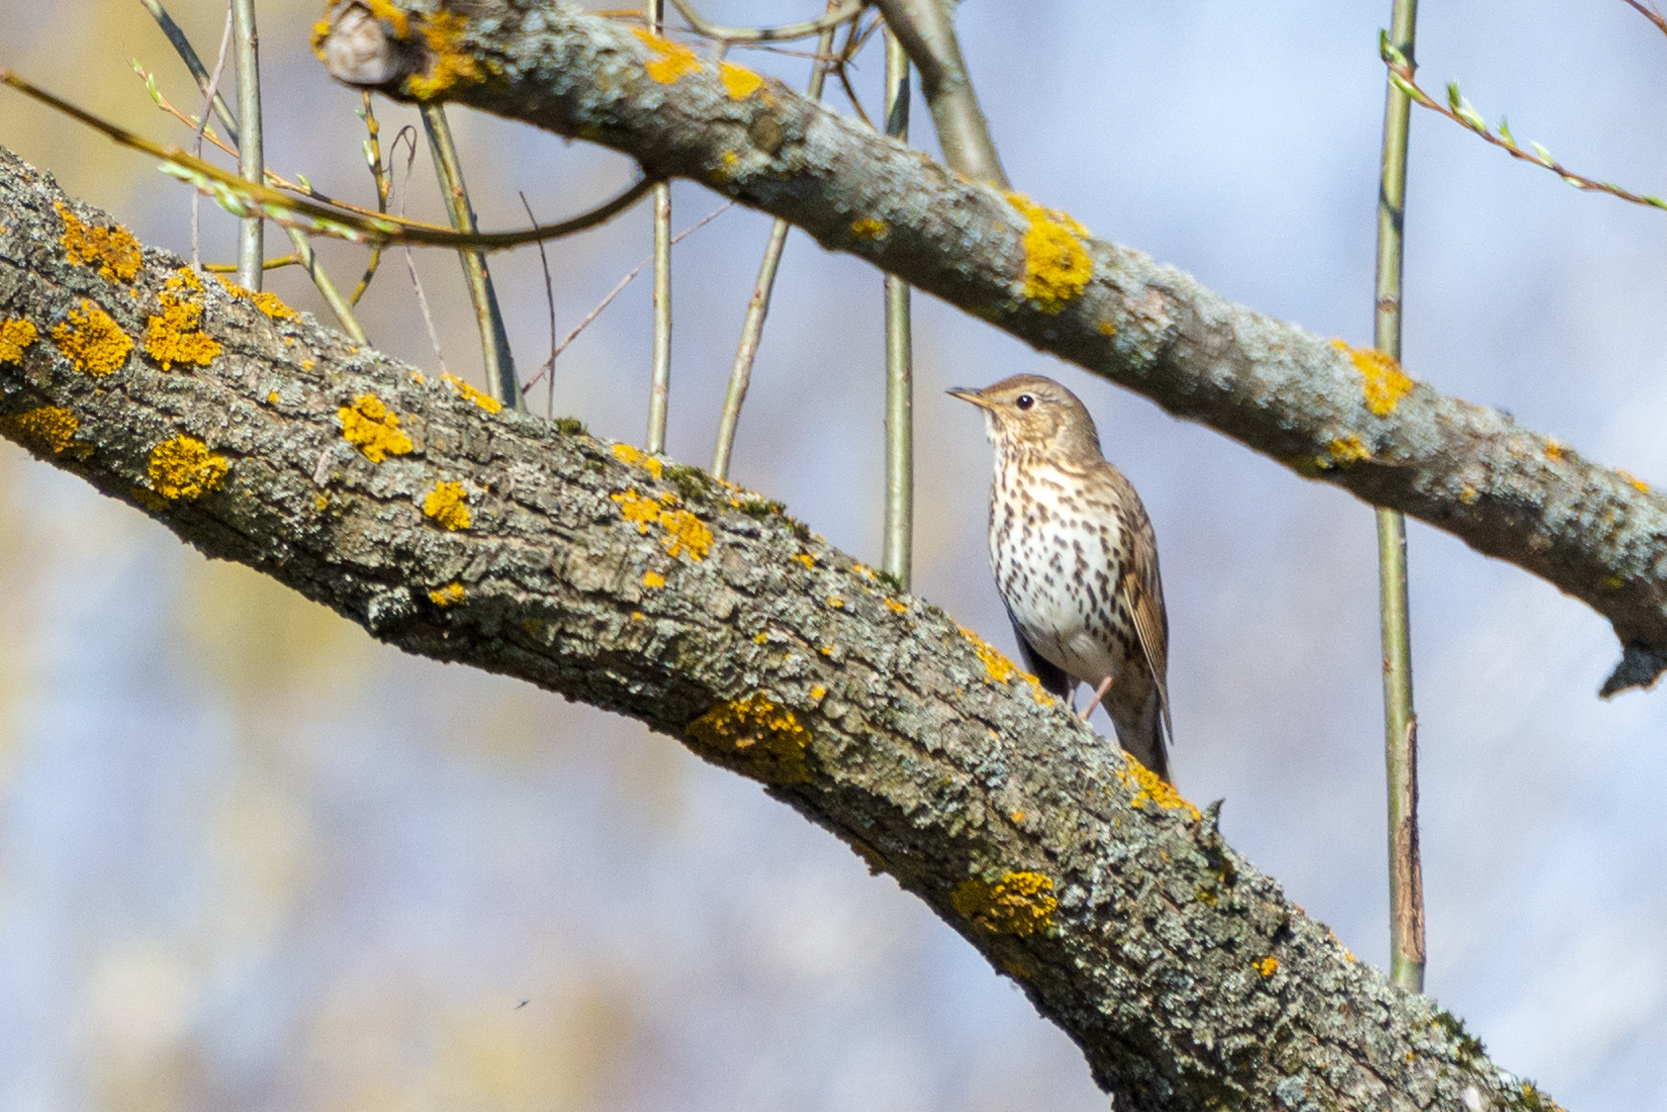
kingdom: Animalia
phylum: Chordata
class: Aves
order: Passeriformes
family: Turdidae
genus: Turdus
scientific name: Turdus philomelos
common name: Song thrush
